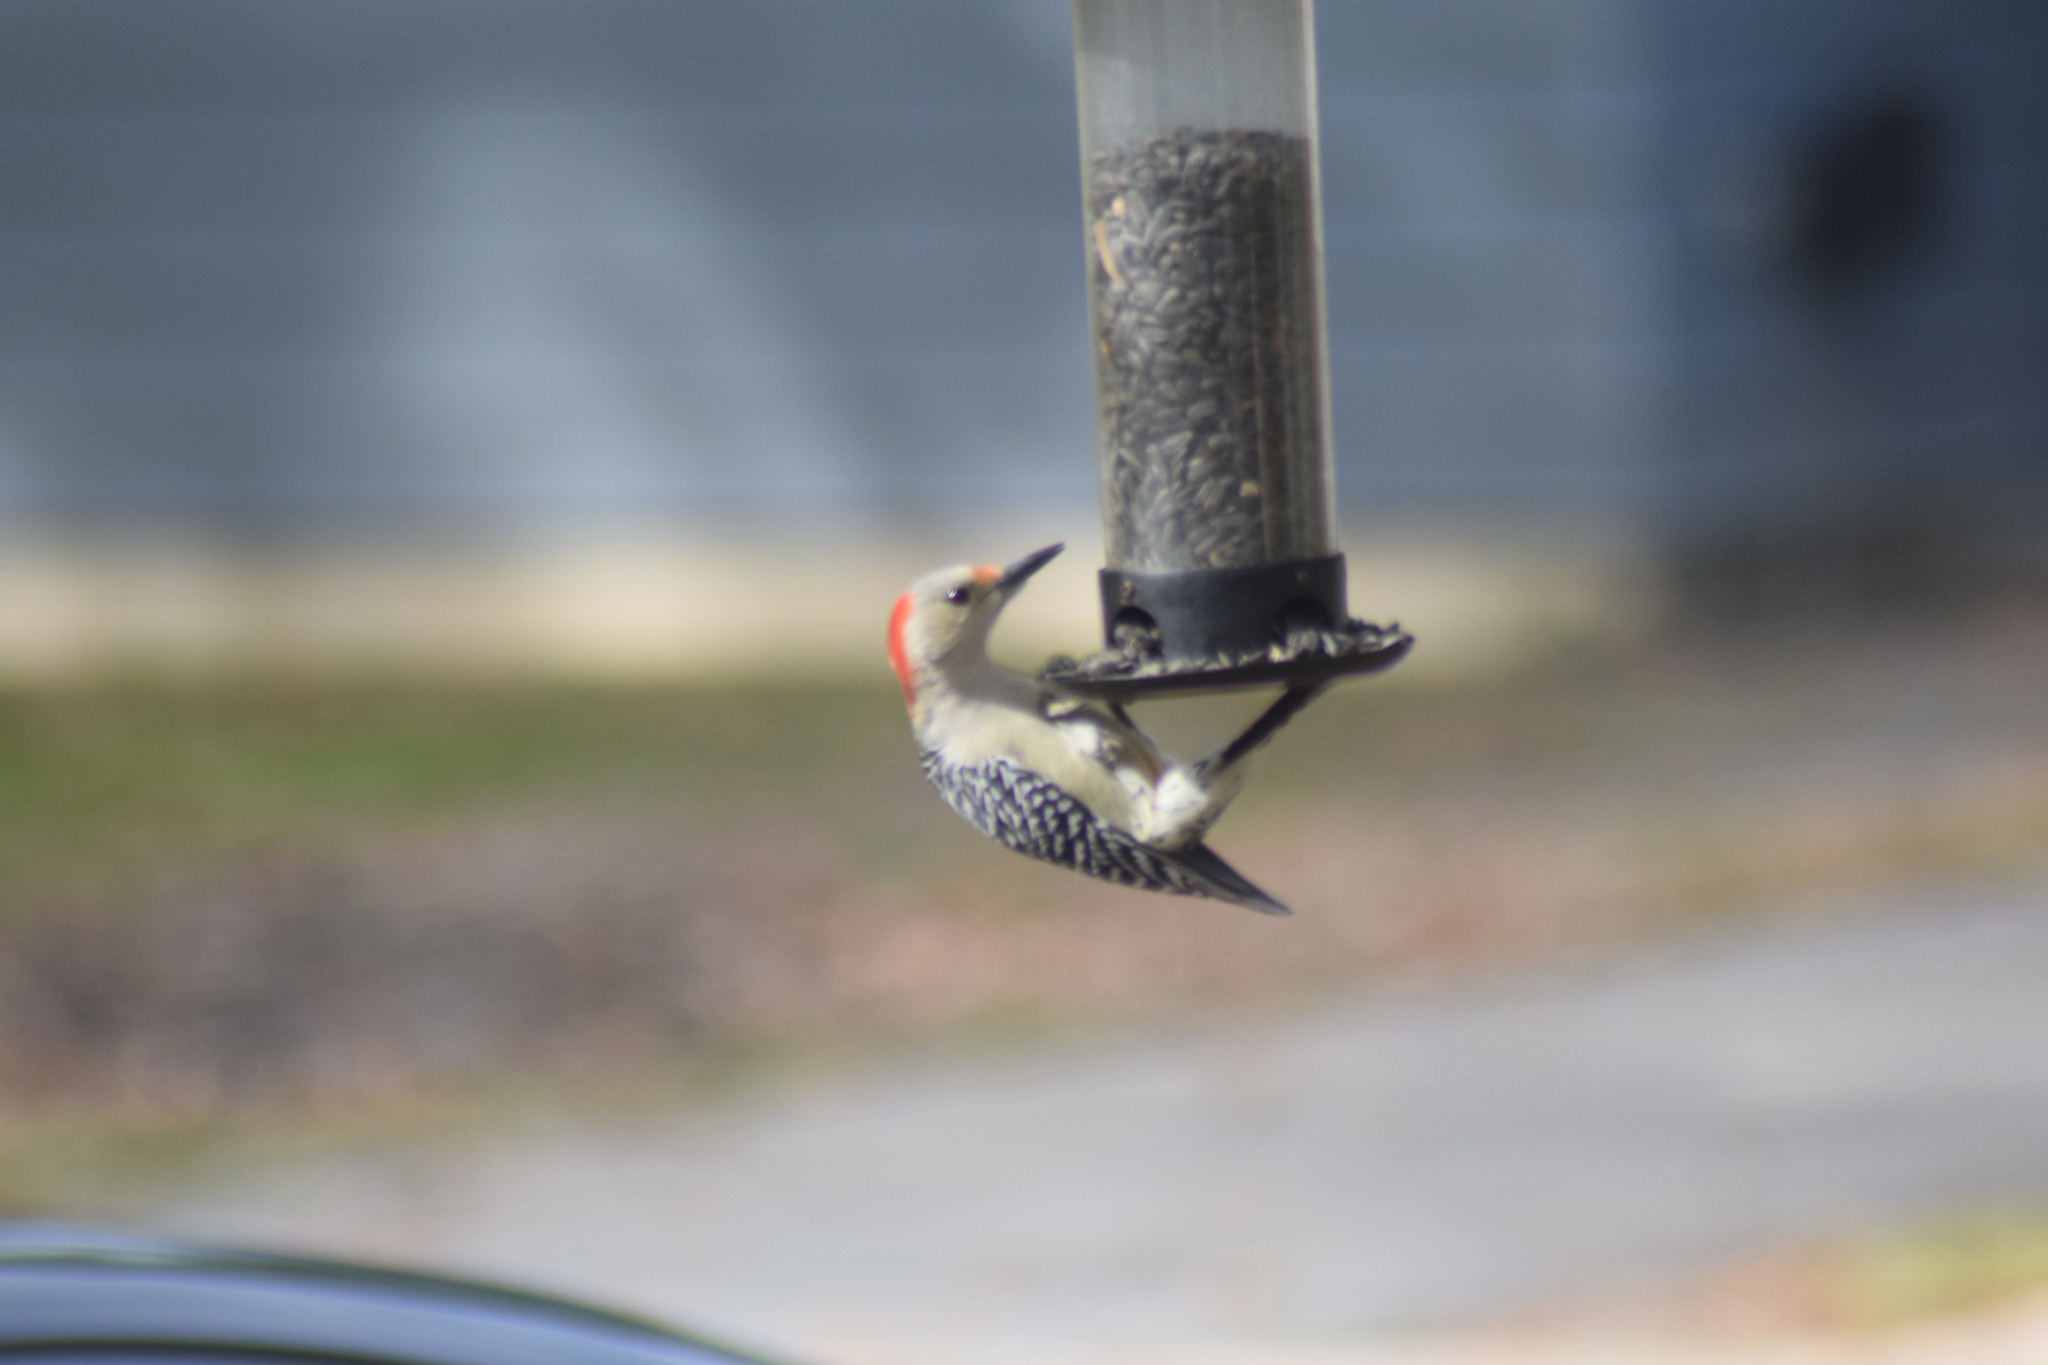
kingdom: Animalia
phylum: Chordata
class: Aves
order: Piciformes
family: Picidae
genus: Melanerpes
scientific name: Melanerpes carolinus
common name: Red-bellied woodpecker
